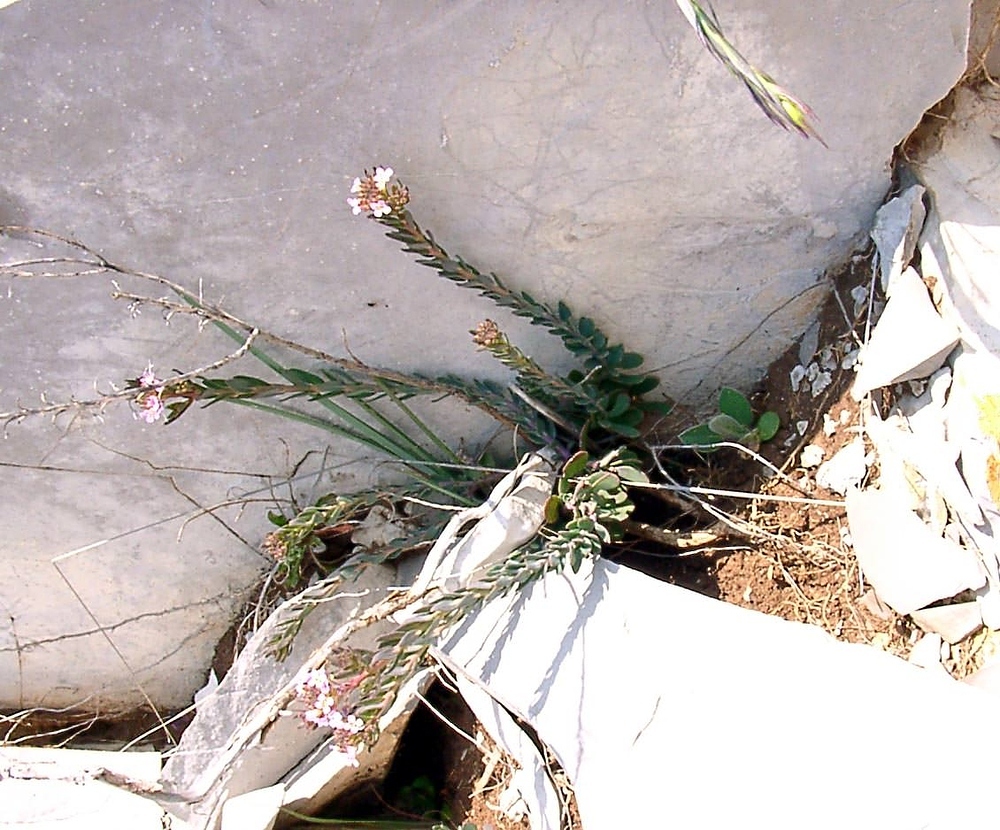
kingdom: Plantae
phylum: Tracheophyta
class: Magnoliopsida
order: Brassicales
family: Brassicaceae
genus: Aethionema
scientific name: Aethionema saxatile
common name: Burnt candytuft
